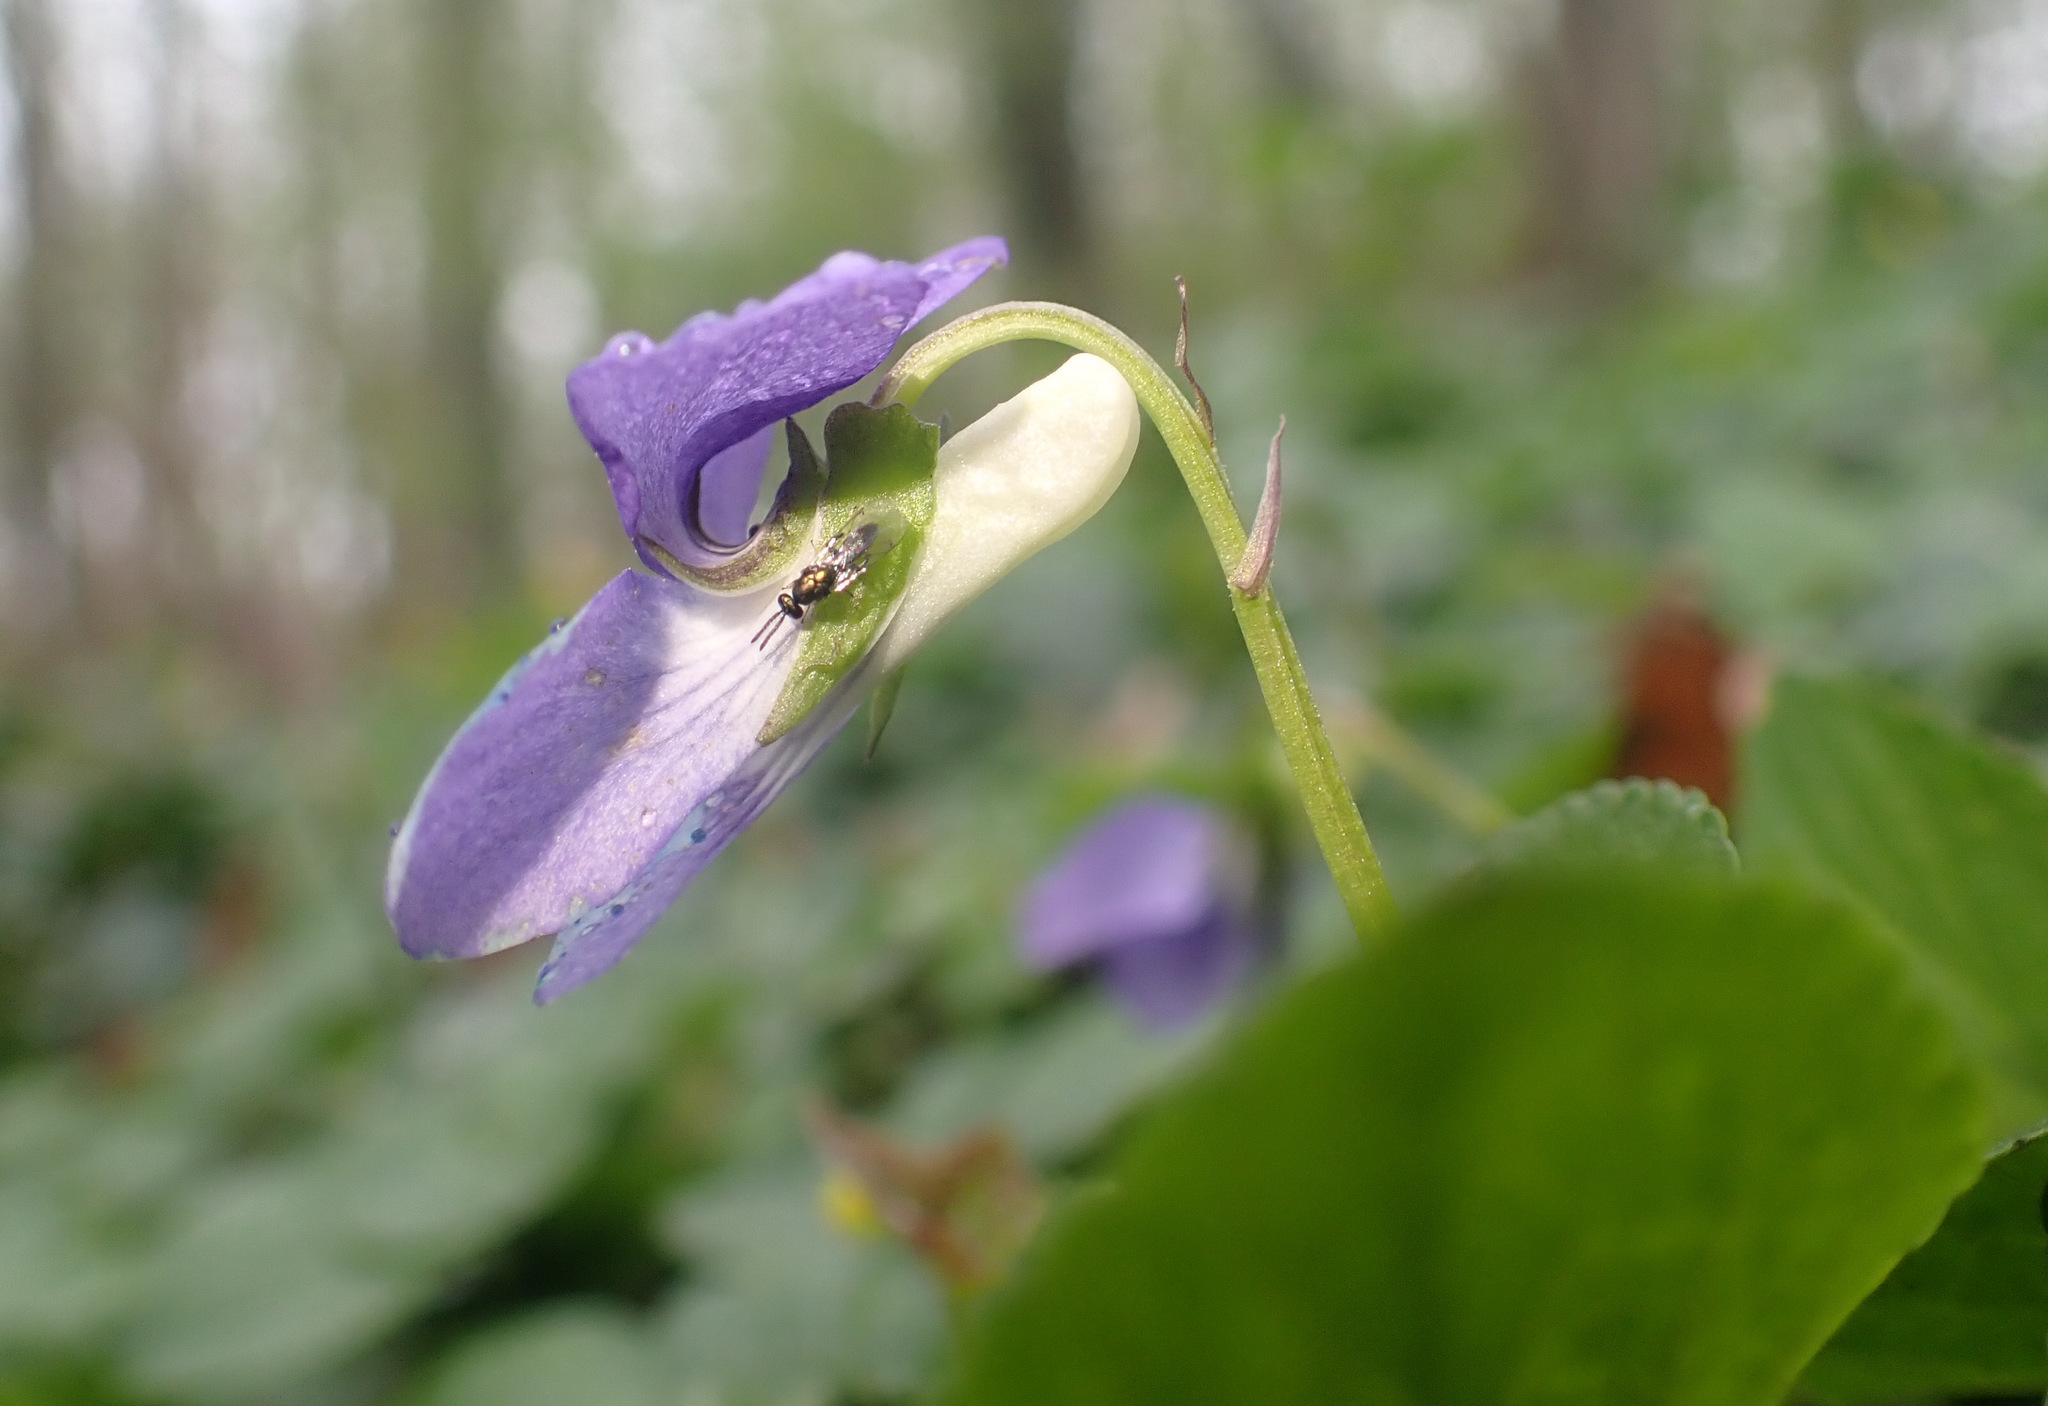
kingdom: Plantae
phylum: Tracheophyta
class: Magnoliopsida
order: Malpighiales
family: Violaceae
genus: Viola
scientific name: Viola riviniana
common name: Common dog-violet
